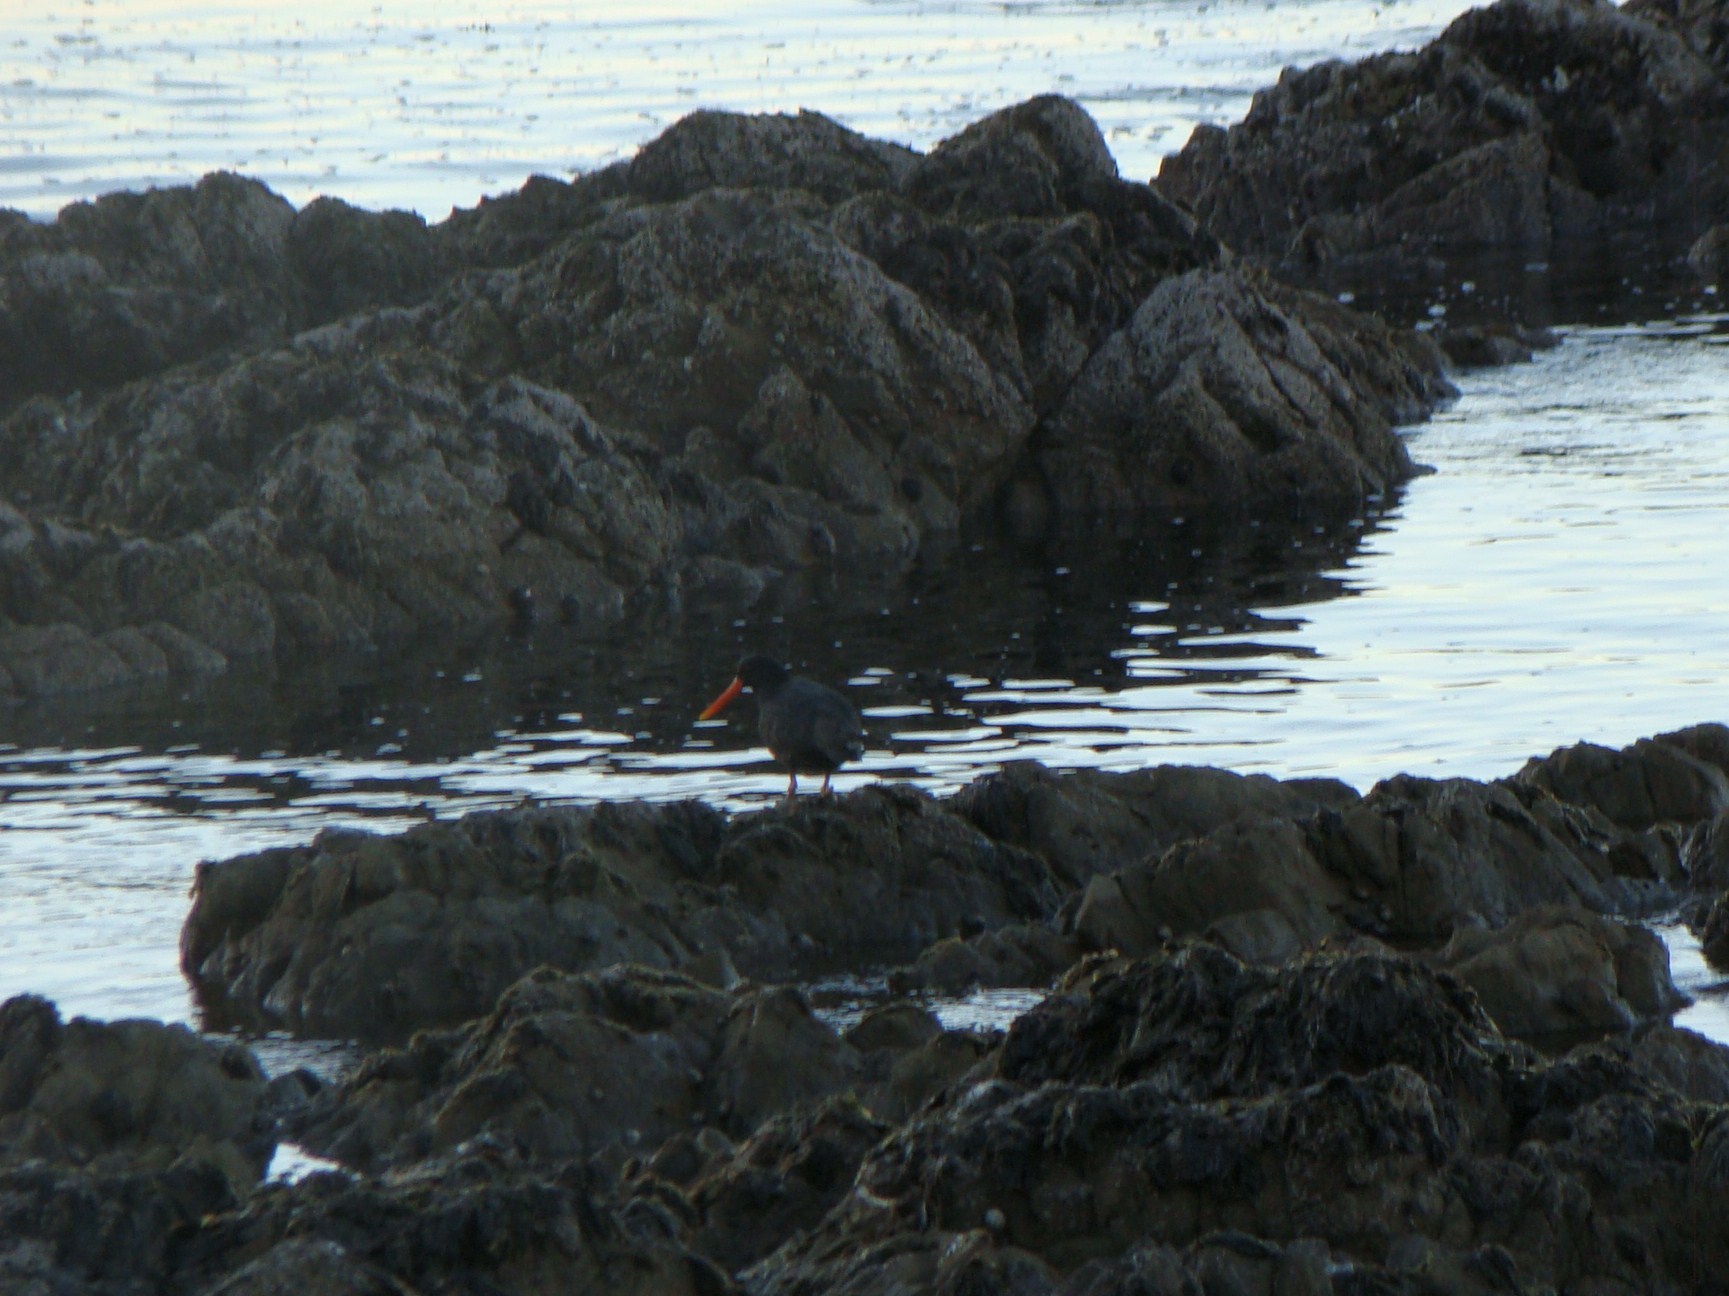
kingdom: Animalia
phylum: Chordata
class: Aves
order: Charadriiformes
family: Haematopodidae
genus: Haematopus
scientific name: Haematopus unicolor
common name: Variable oystercatcher
